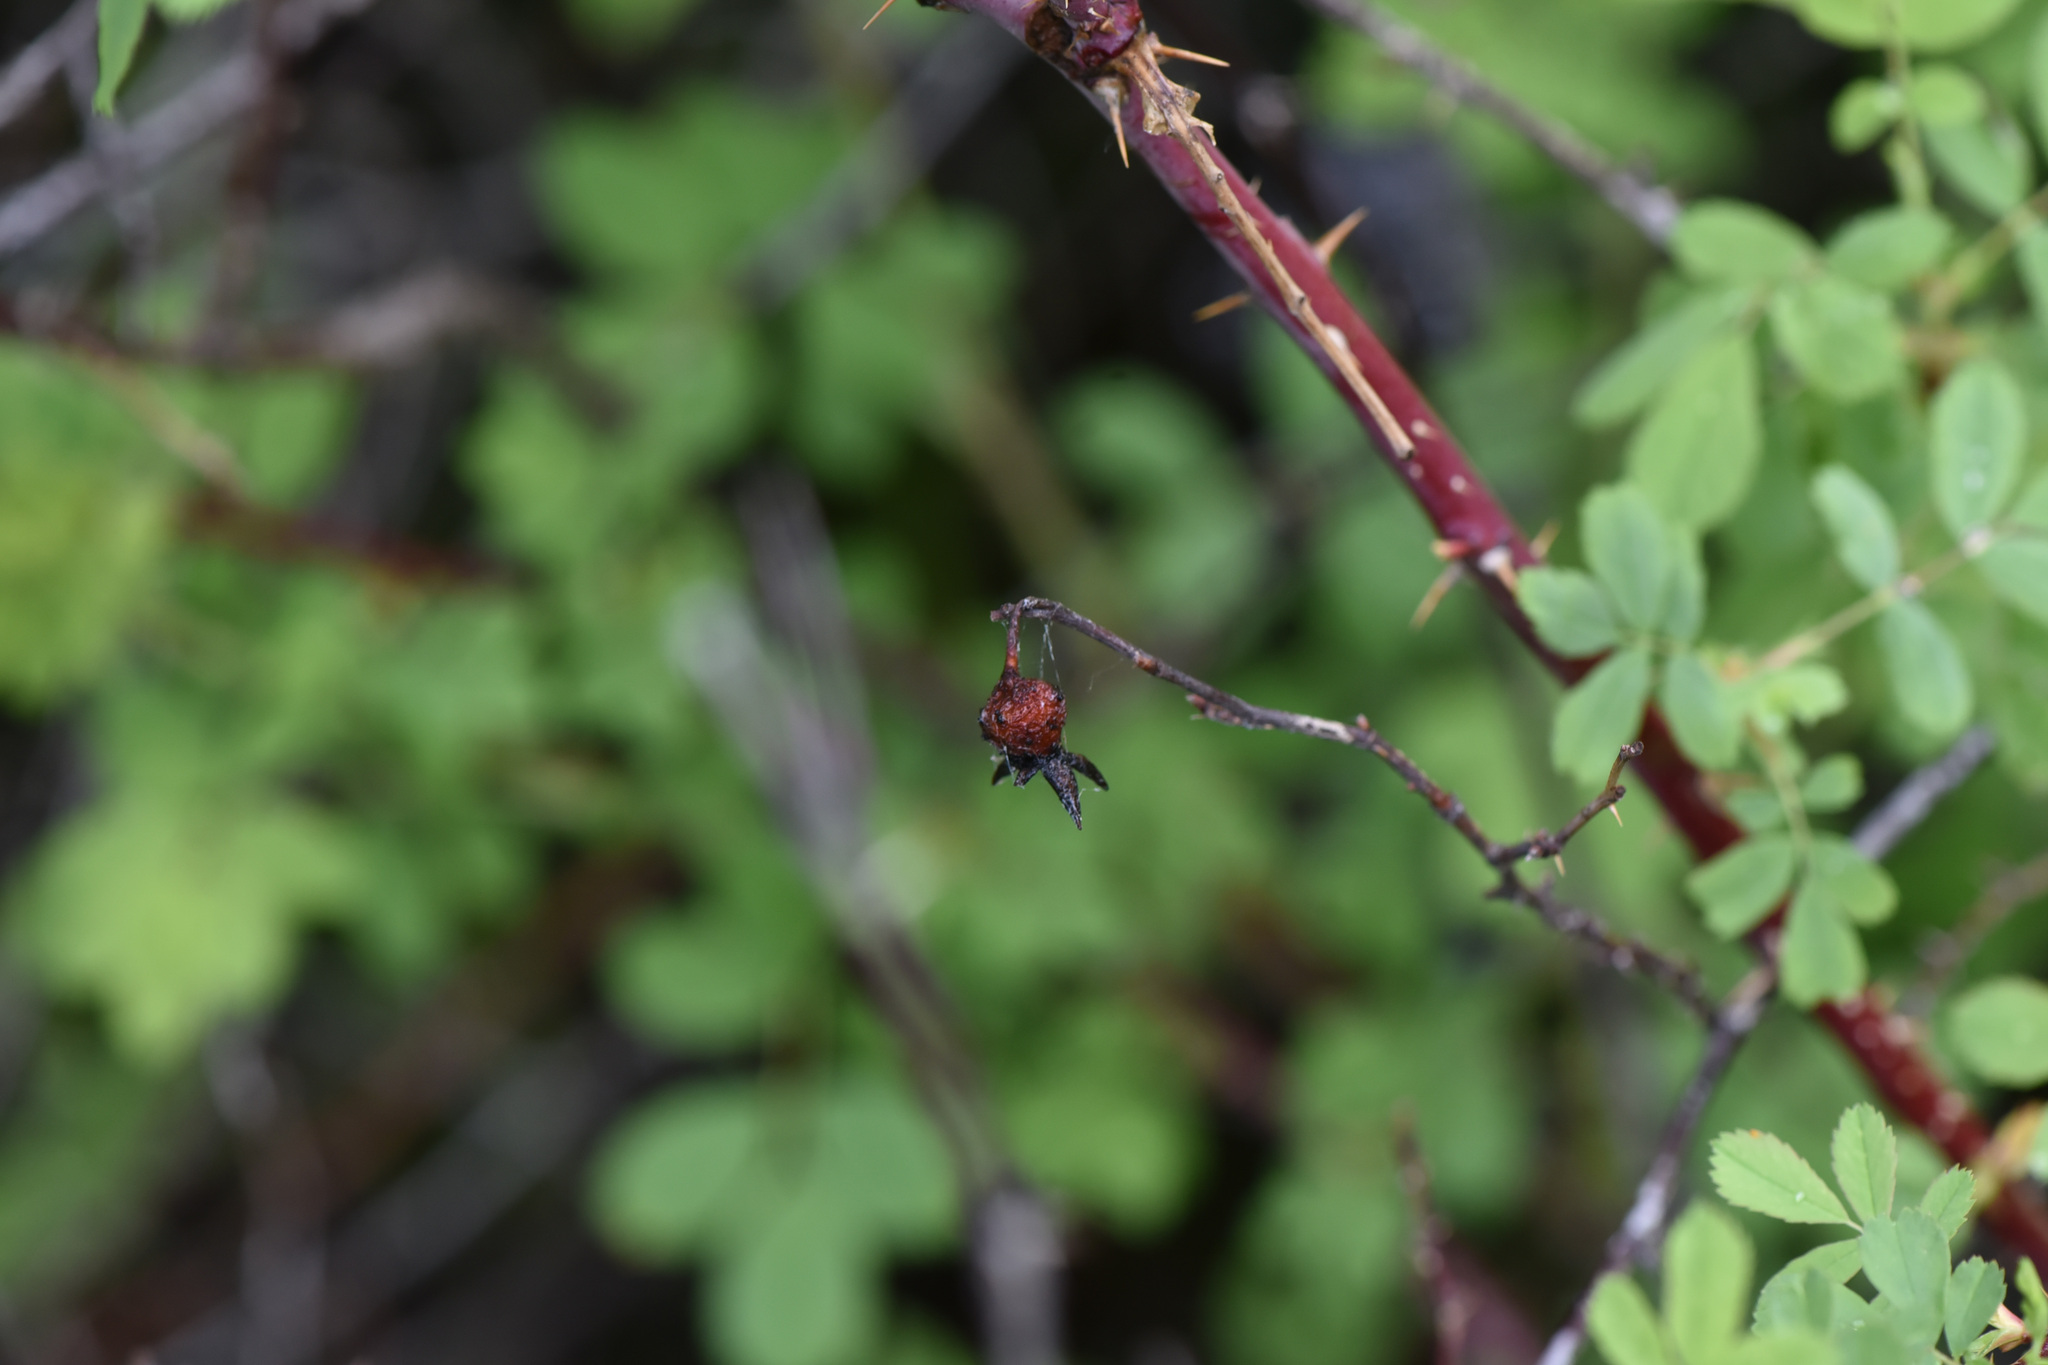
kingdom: Plantae
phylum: Tracheophyta
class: Magnoliopsida
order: Rosales
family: Rosaceae
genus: Rosa
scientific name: Rosa woodsii
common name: Woods's rose
